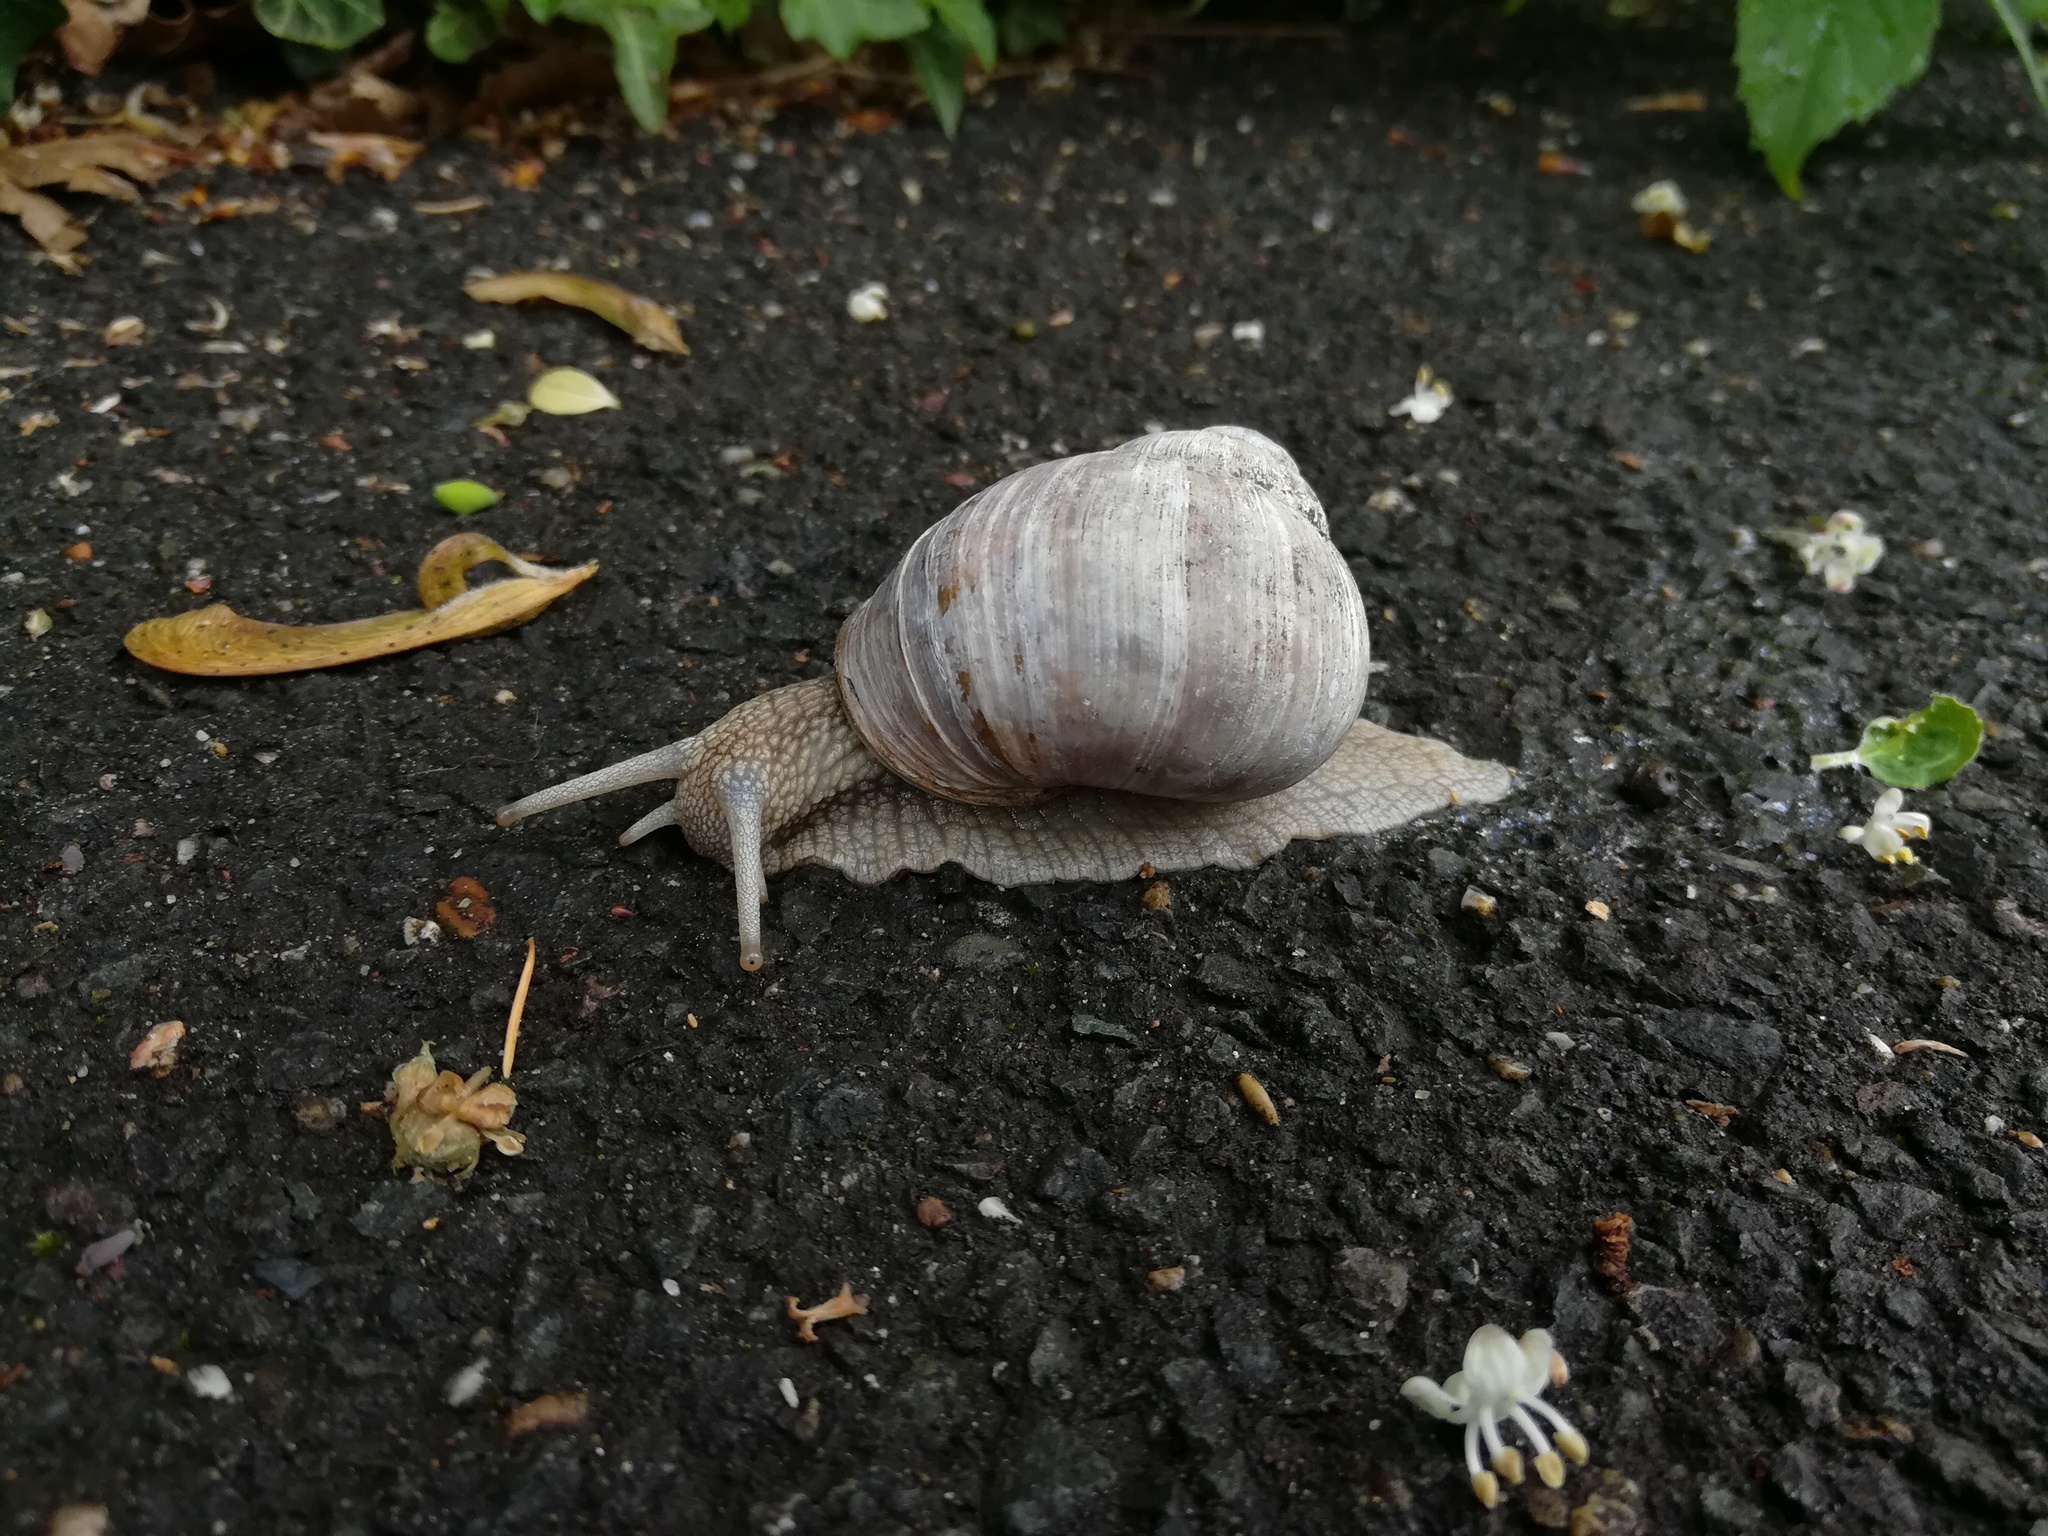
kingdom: Animalia
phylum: Mollusca
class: Gastropoda
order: Stylommatophora
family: Helicidae
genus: Helix
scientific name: Helix pomatia
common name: Roman snail
